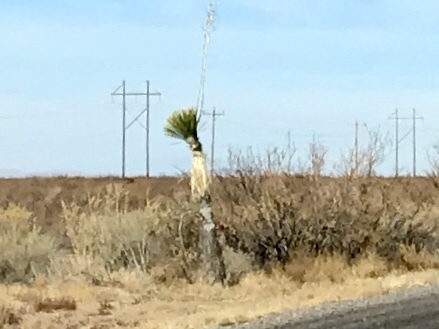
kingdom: Plantae
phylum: Tracheophyta
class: Liliopsida
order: Asparagales
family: Asparagaceae
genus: Yucca
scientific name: Yucca elata
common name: Palmella
